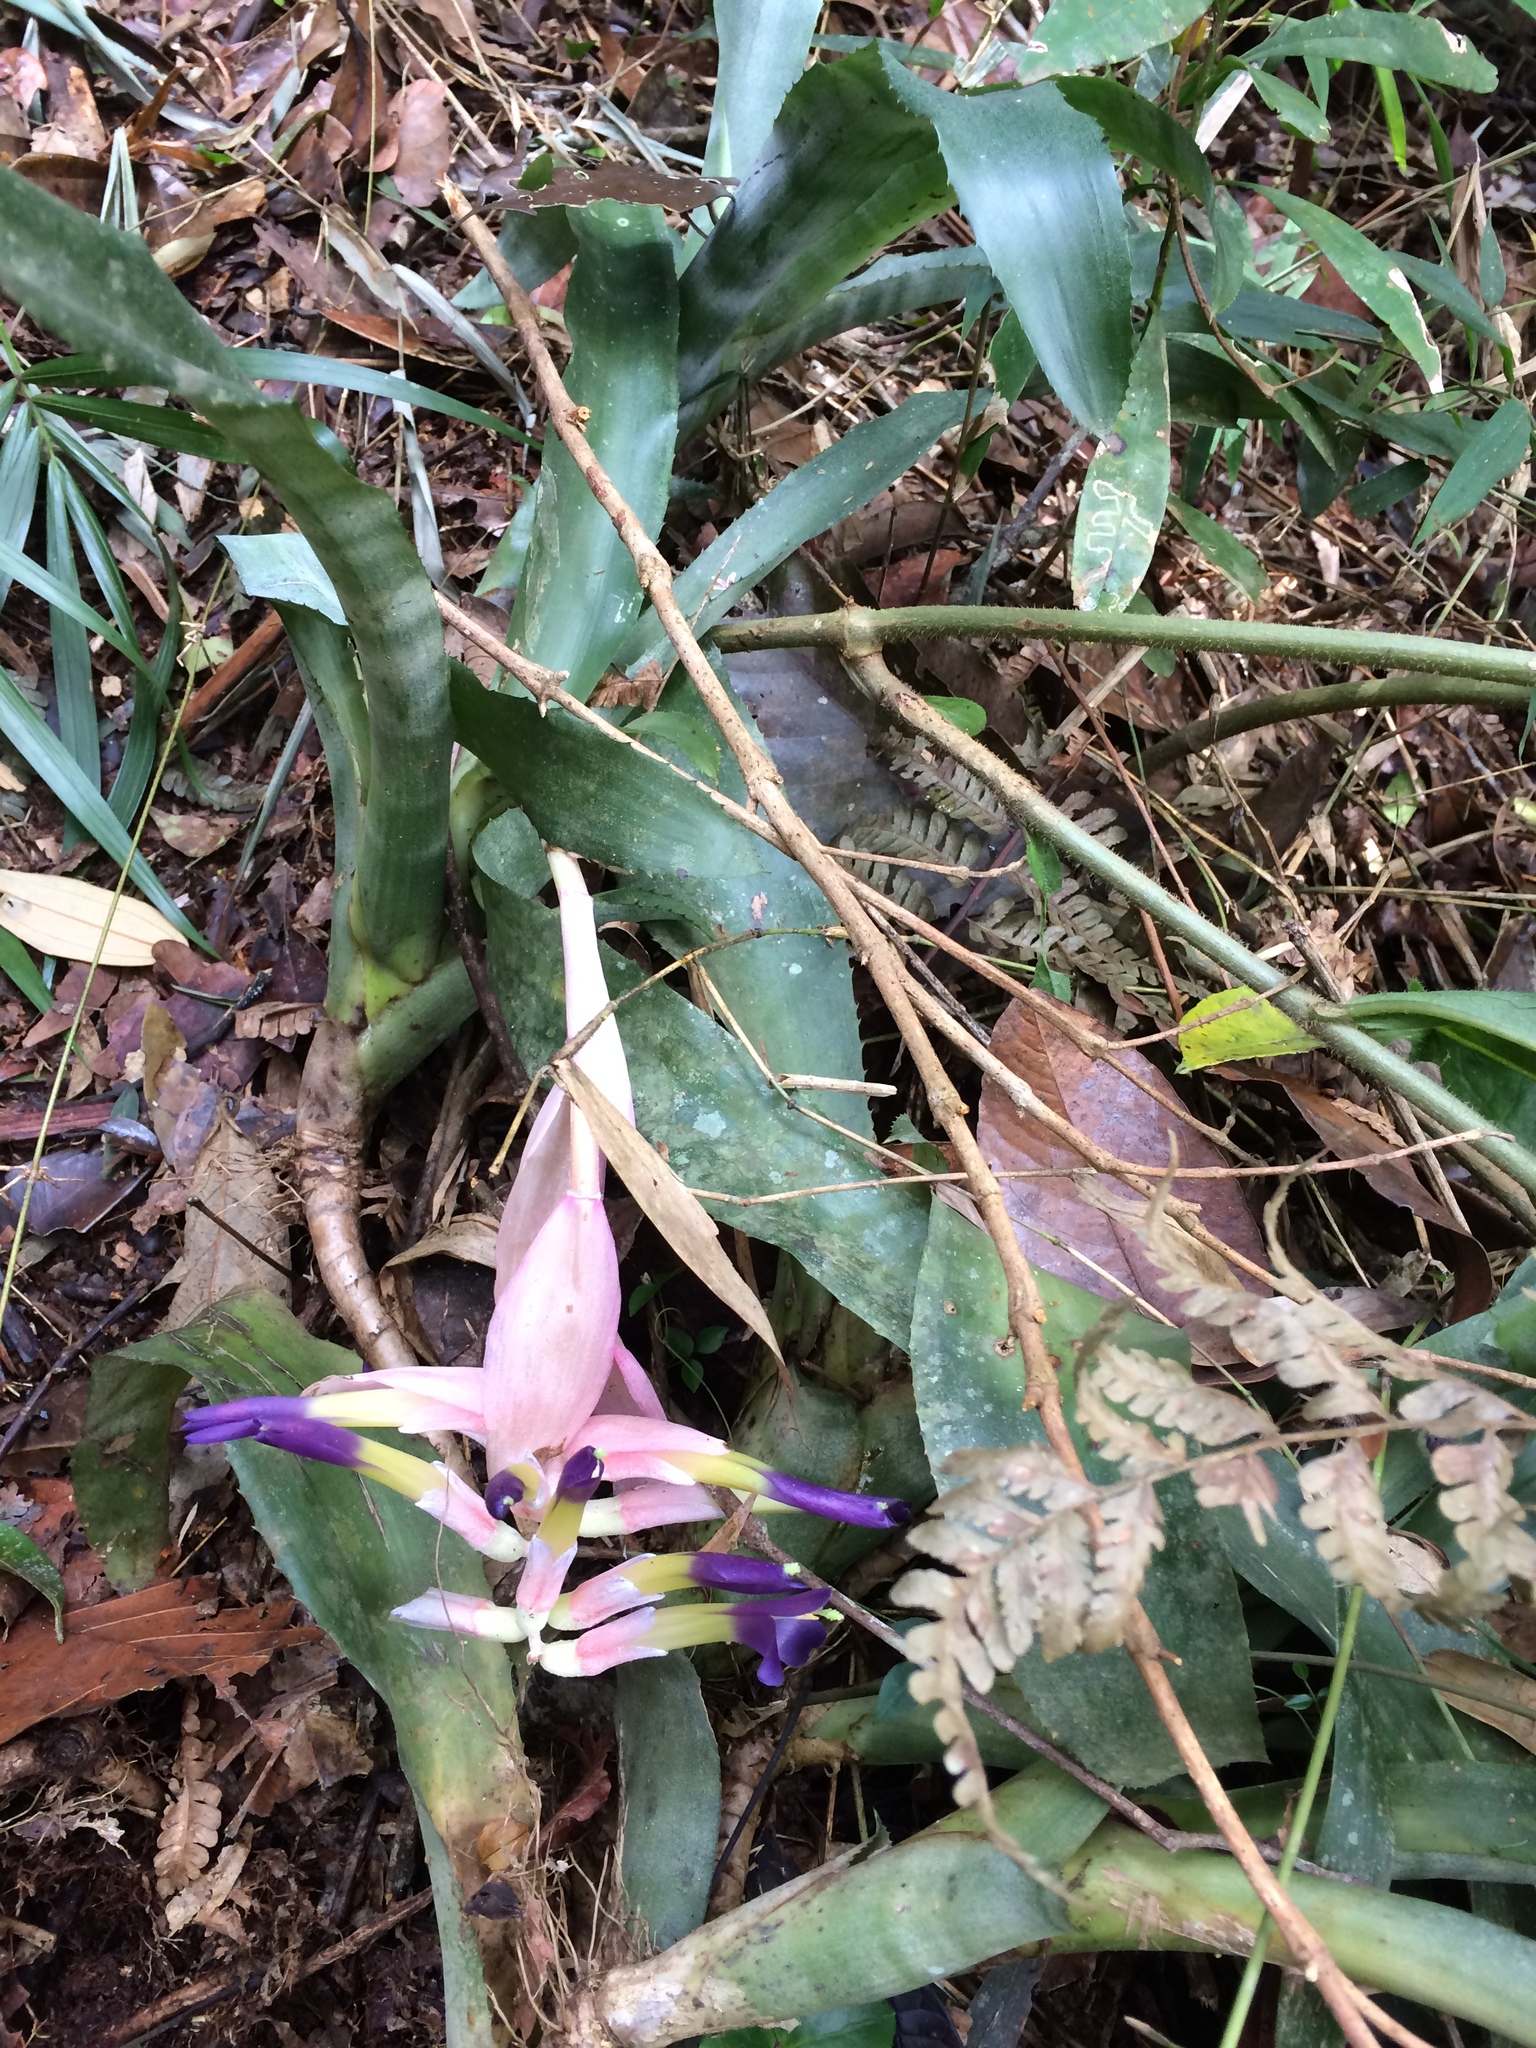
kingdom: Plantae
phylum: Tracheophyta
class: Liliopsida
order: Poales
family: Bromeliaceae
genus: Billbergia
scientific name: Billbergia euphemiae
